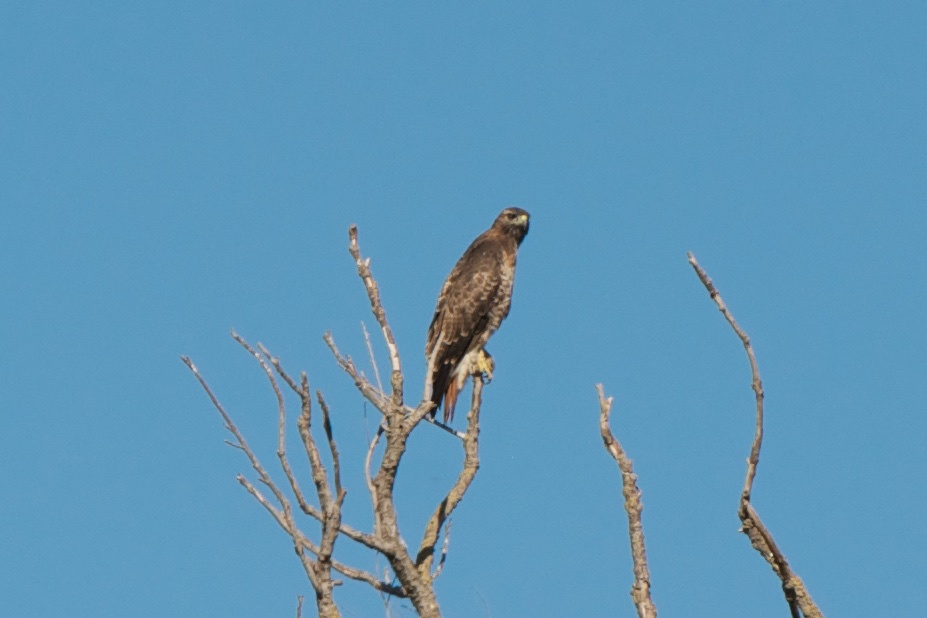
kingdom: Animalia
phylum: Chordata
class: Aves
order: Accipitriformes
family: Accipitridae
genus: Buteo
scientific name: Buteo jamaicensis
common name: Red-tailed hawk
